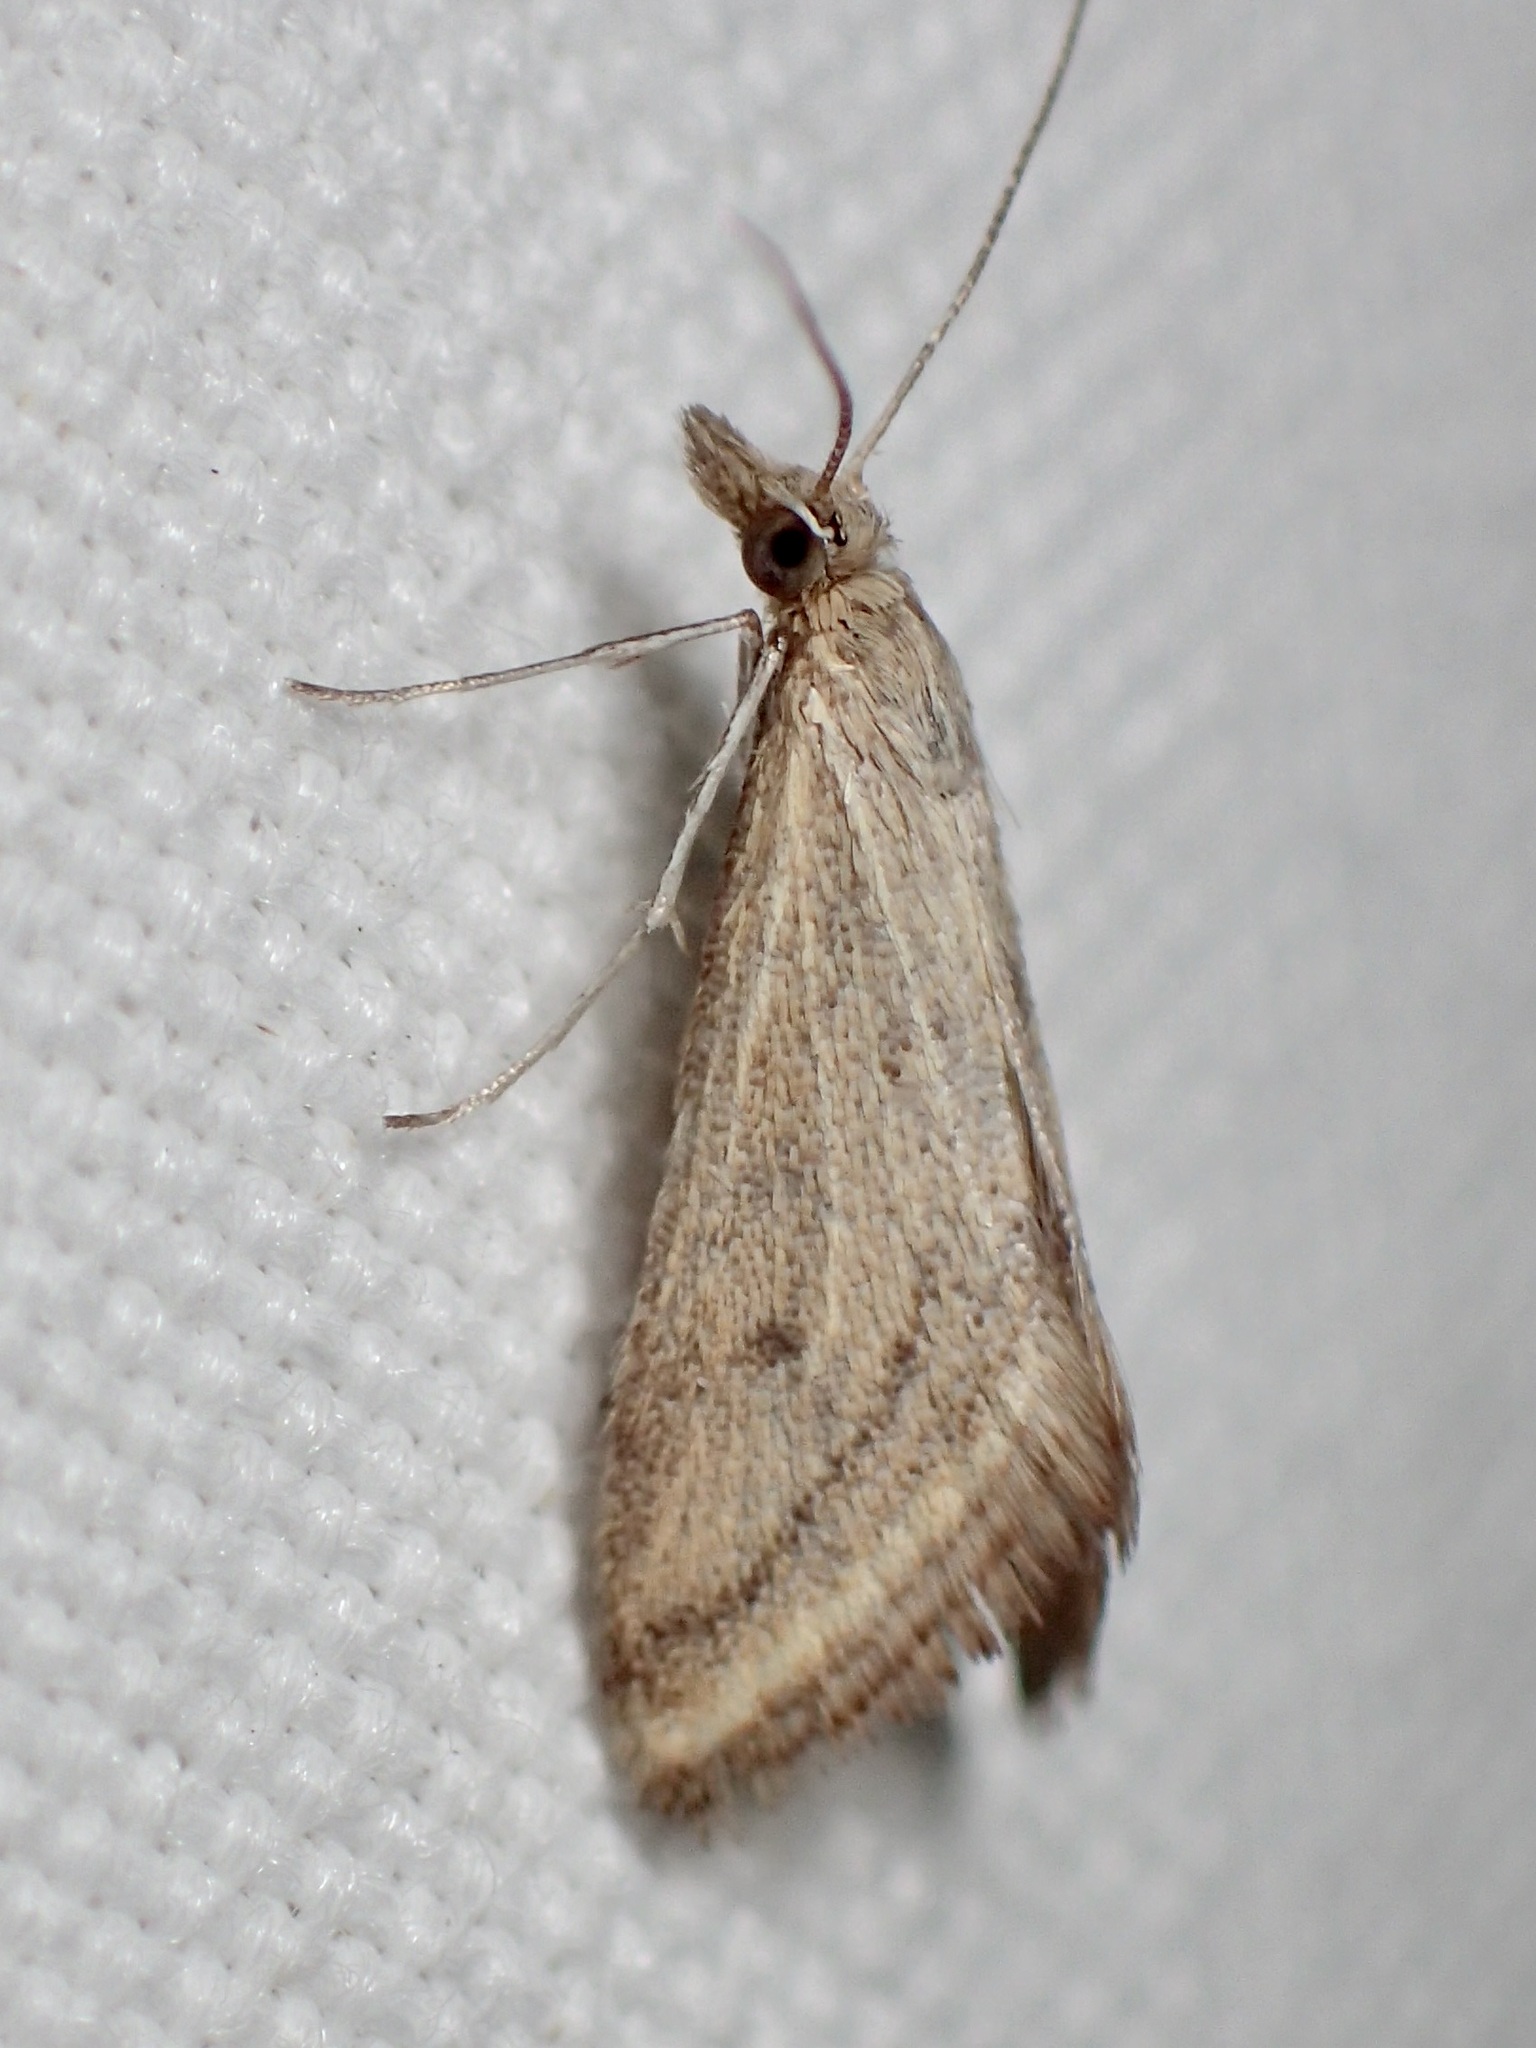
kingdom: Animalia
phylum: Arthropoda
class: Insecta
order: Lepidoptera
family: Crambidae
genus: Microtheoris
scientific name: Microtheoris ophionalis
